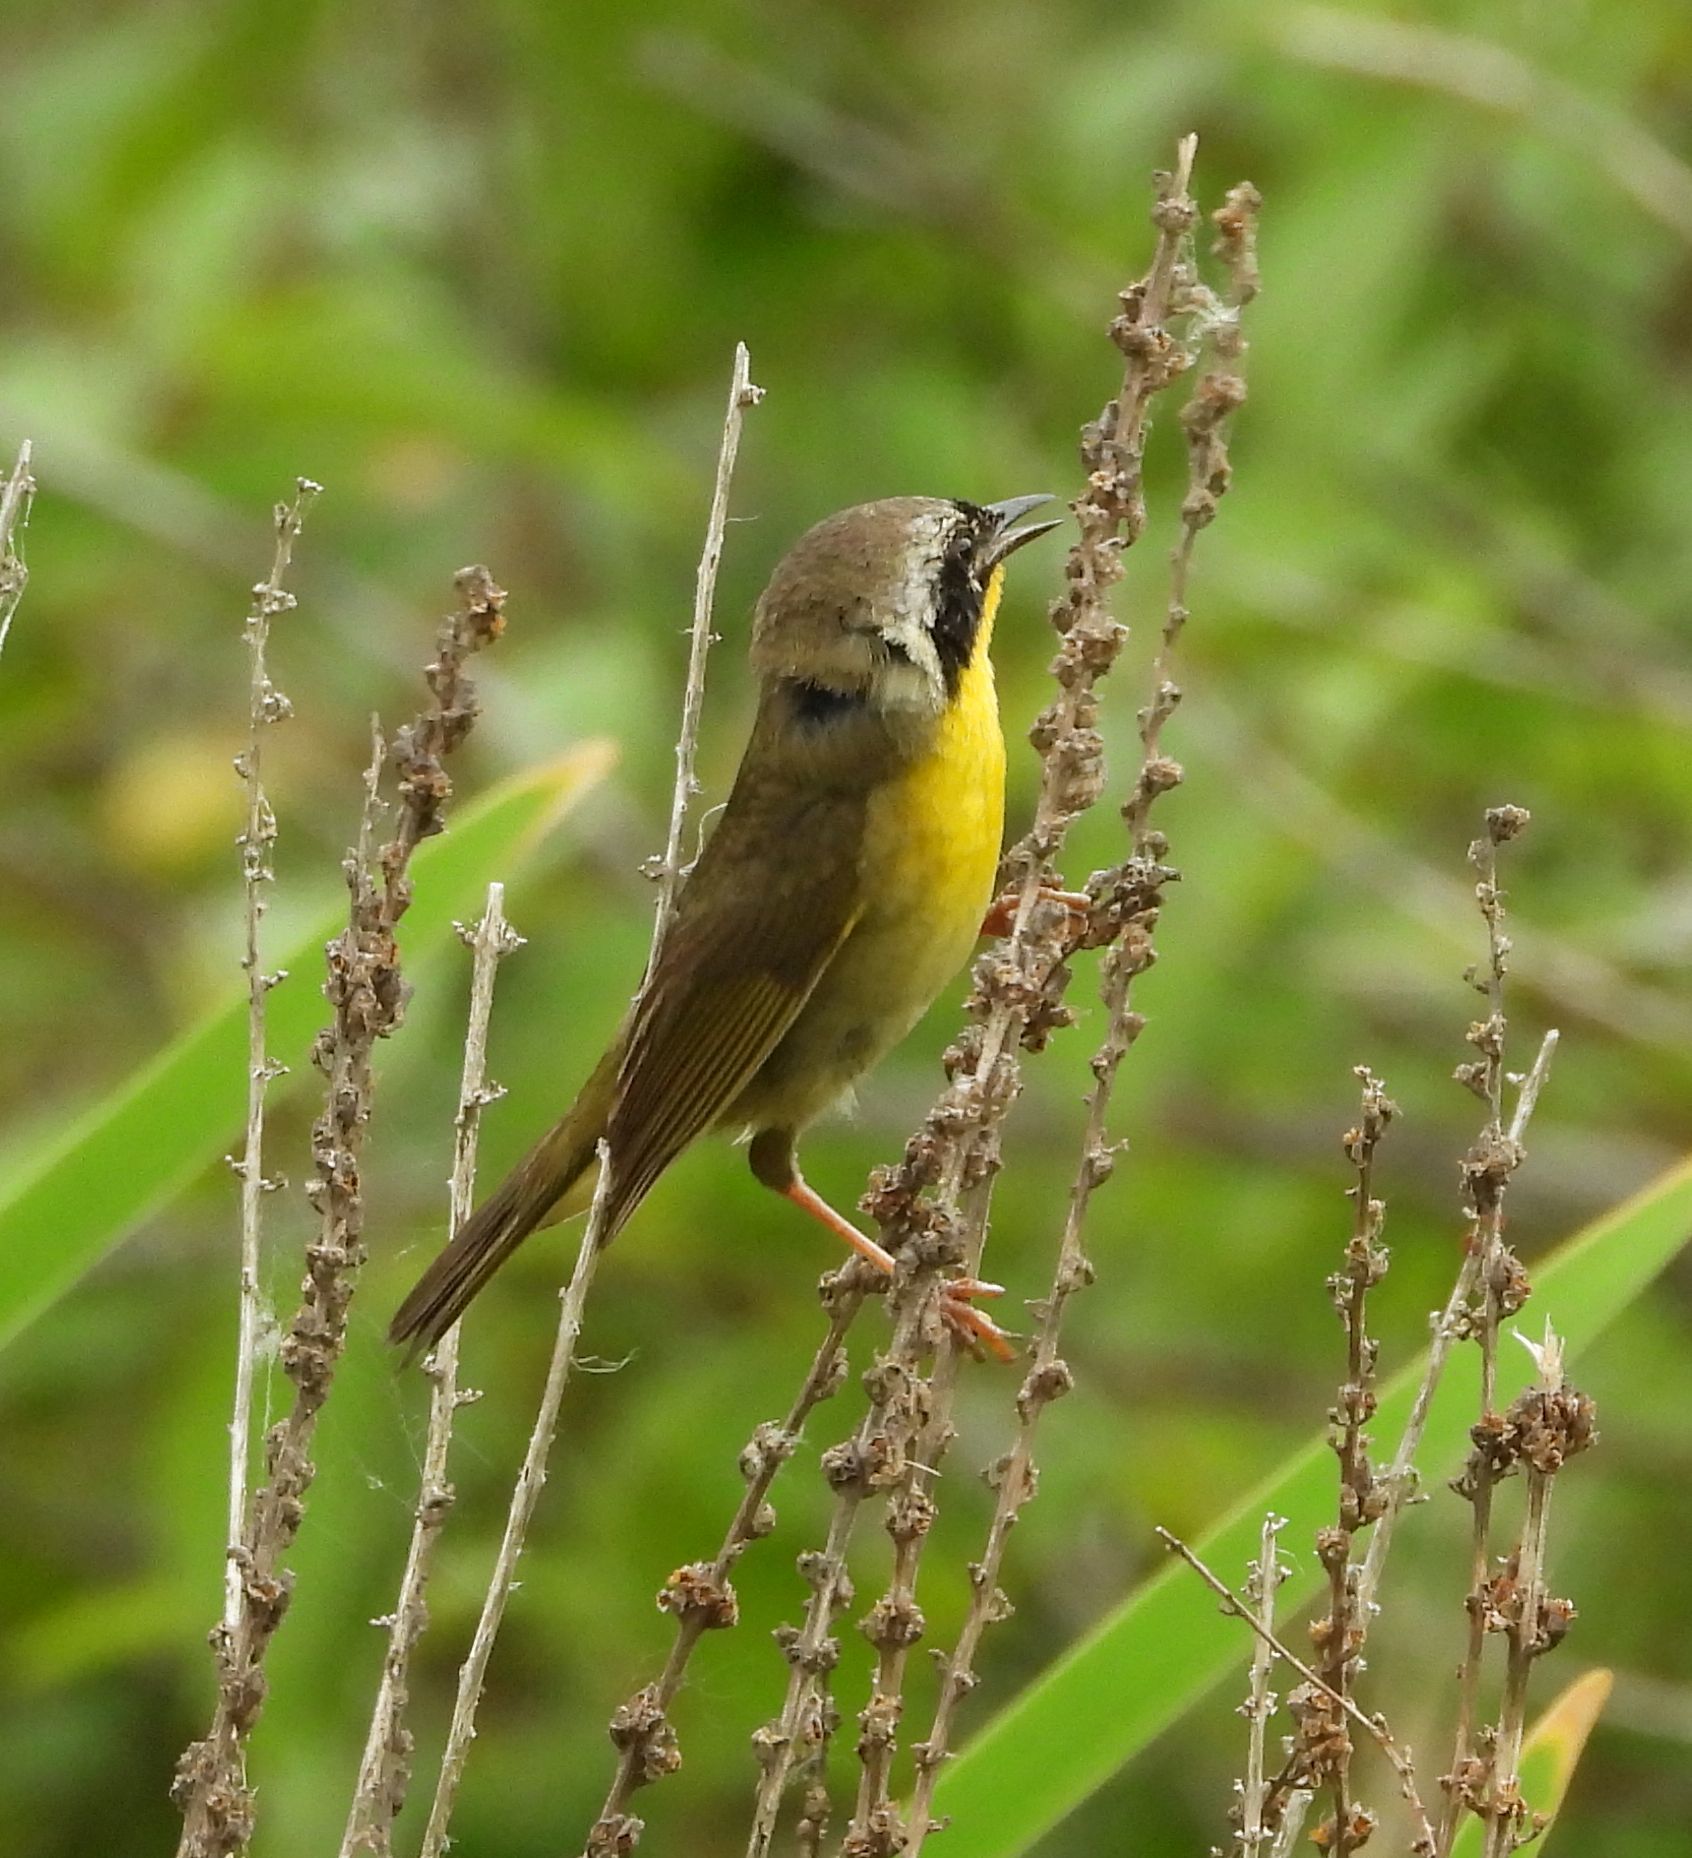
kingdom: Animalia
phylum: Chordata
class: Aves
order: Passeriformes
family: Parulidae
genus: Geothlypis
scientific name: Geothlypis trichas
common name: Common yellowthroat
